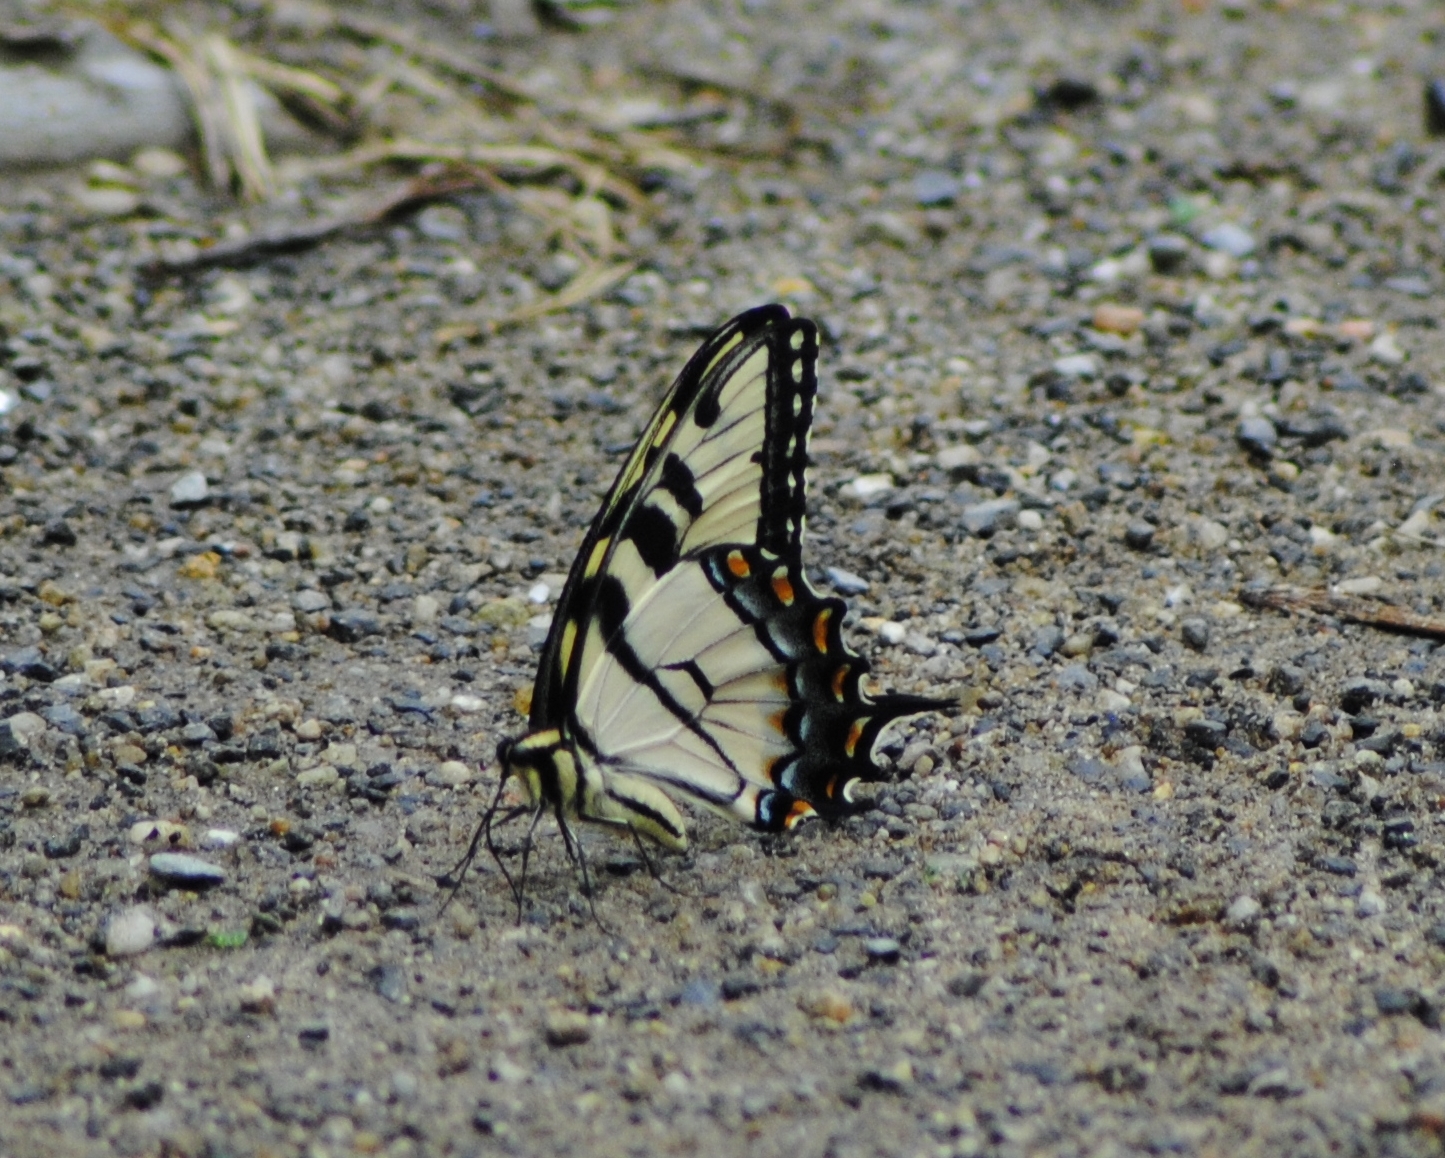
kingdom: Animalia
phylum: Arthropoda
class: Insecta
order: Lepidoptera
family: Papilionidae
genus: Papilio
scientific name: Papilio glaucus
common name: Tiger swallowtail
